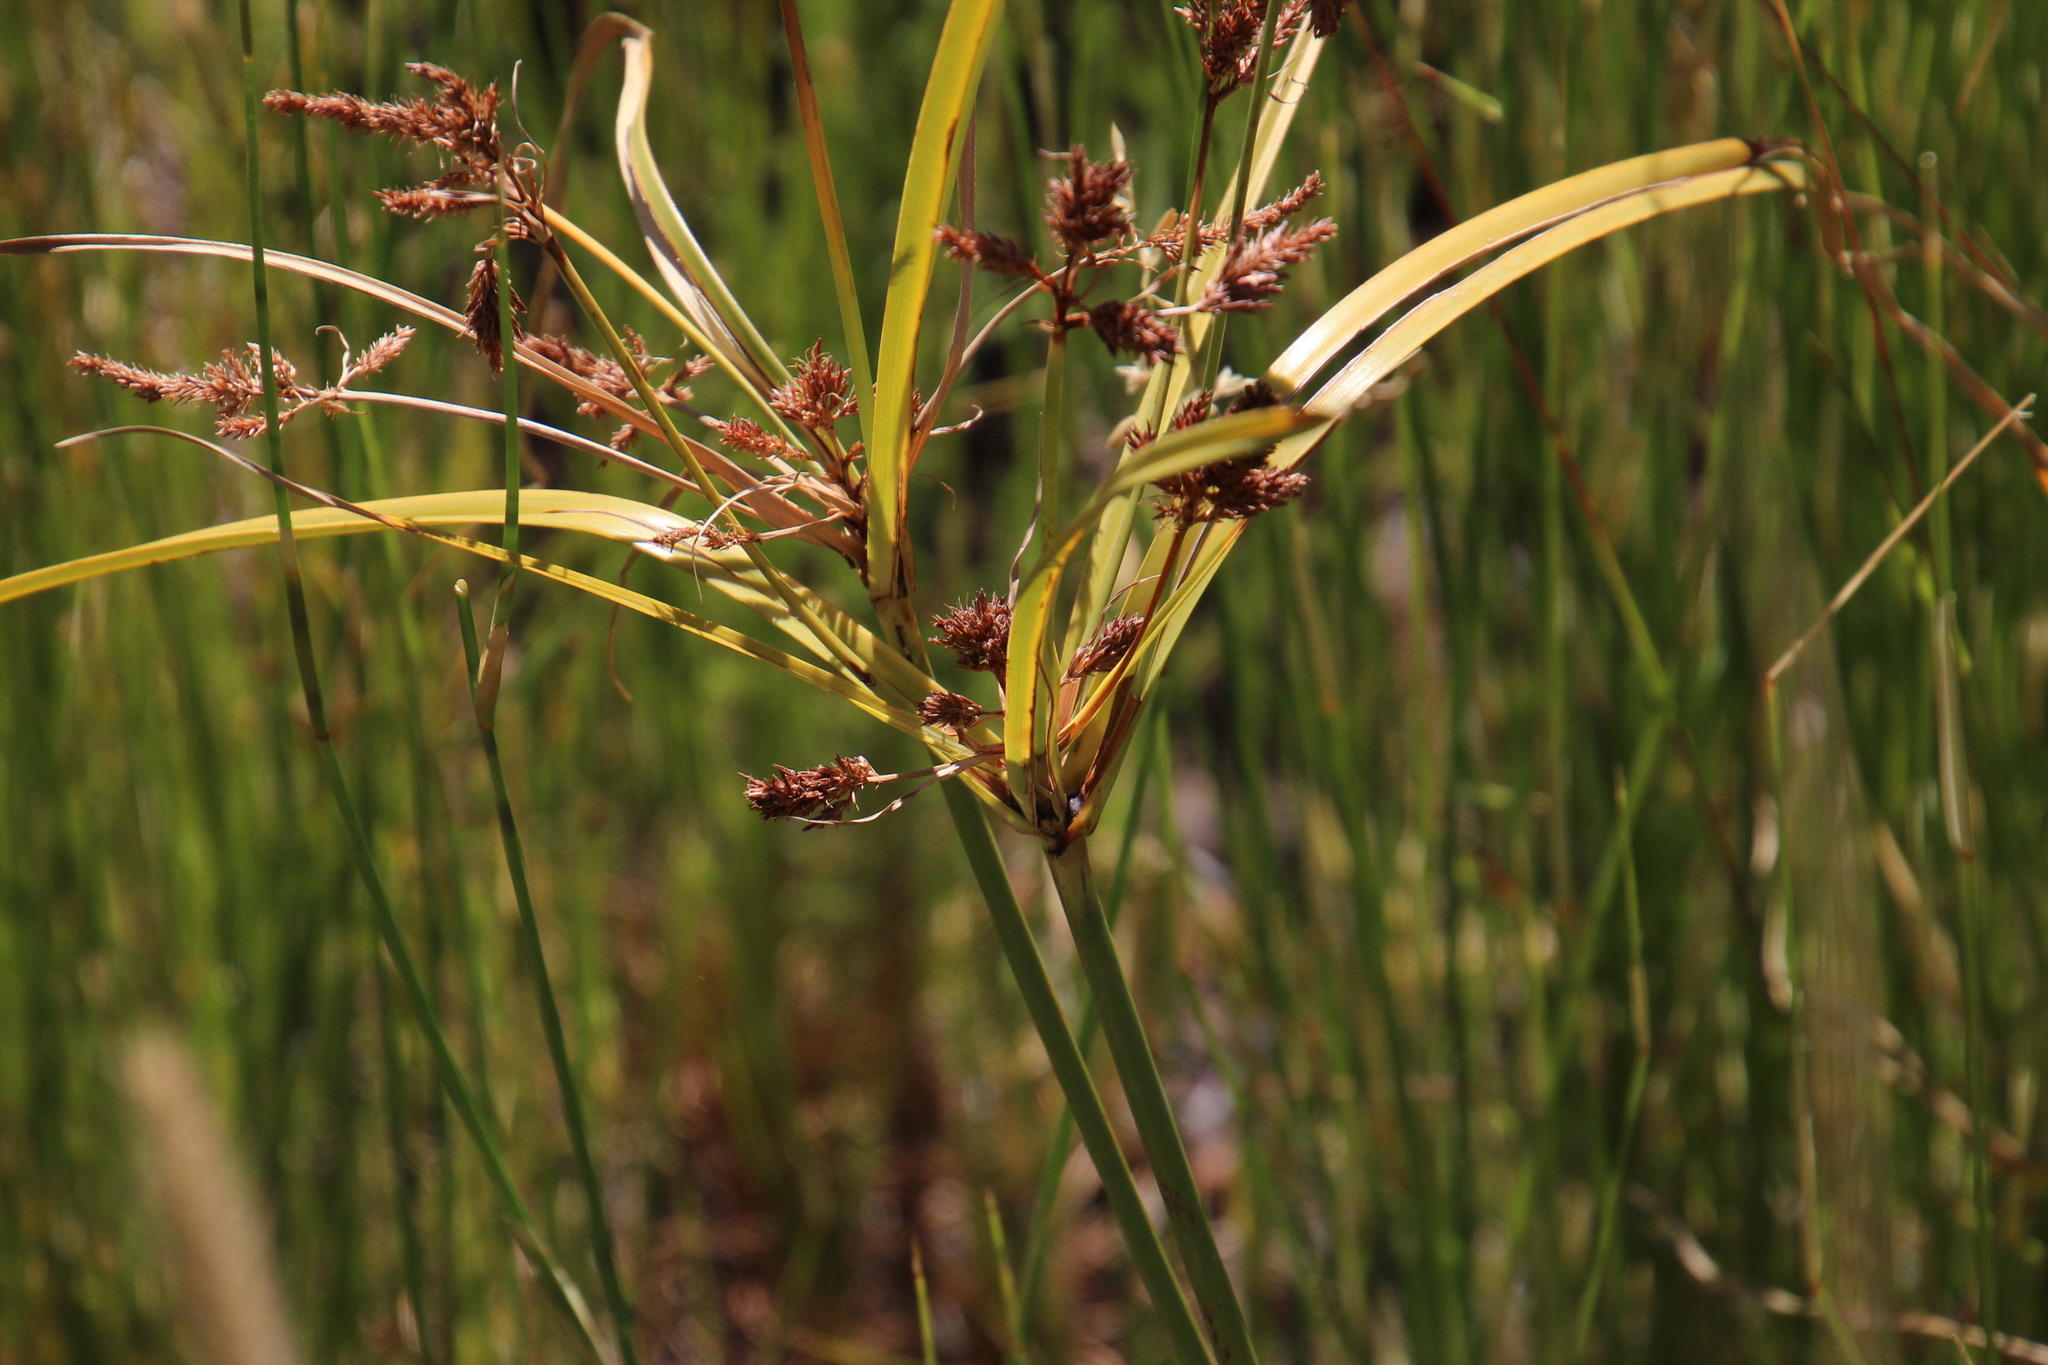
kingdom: Plantae
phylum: Tracheophyta
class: Liliopsida
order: Poales
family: Cyperaceae
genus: Cyperus
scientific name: Cyperus thunbergii
